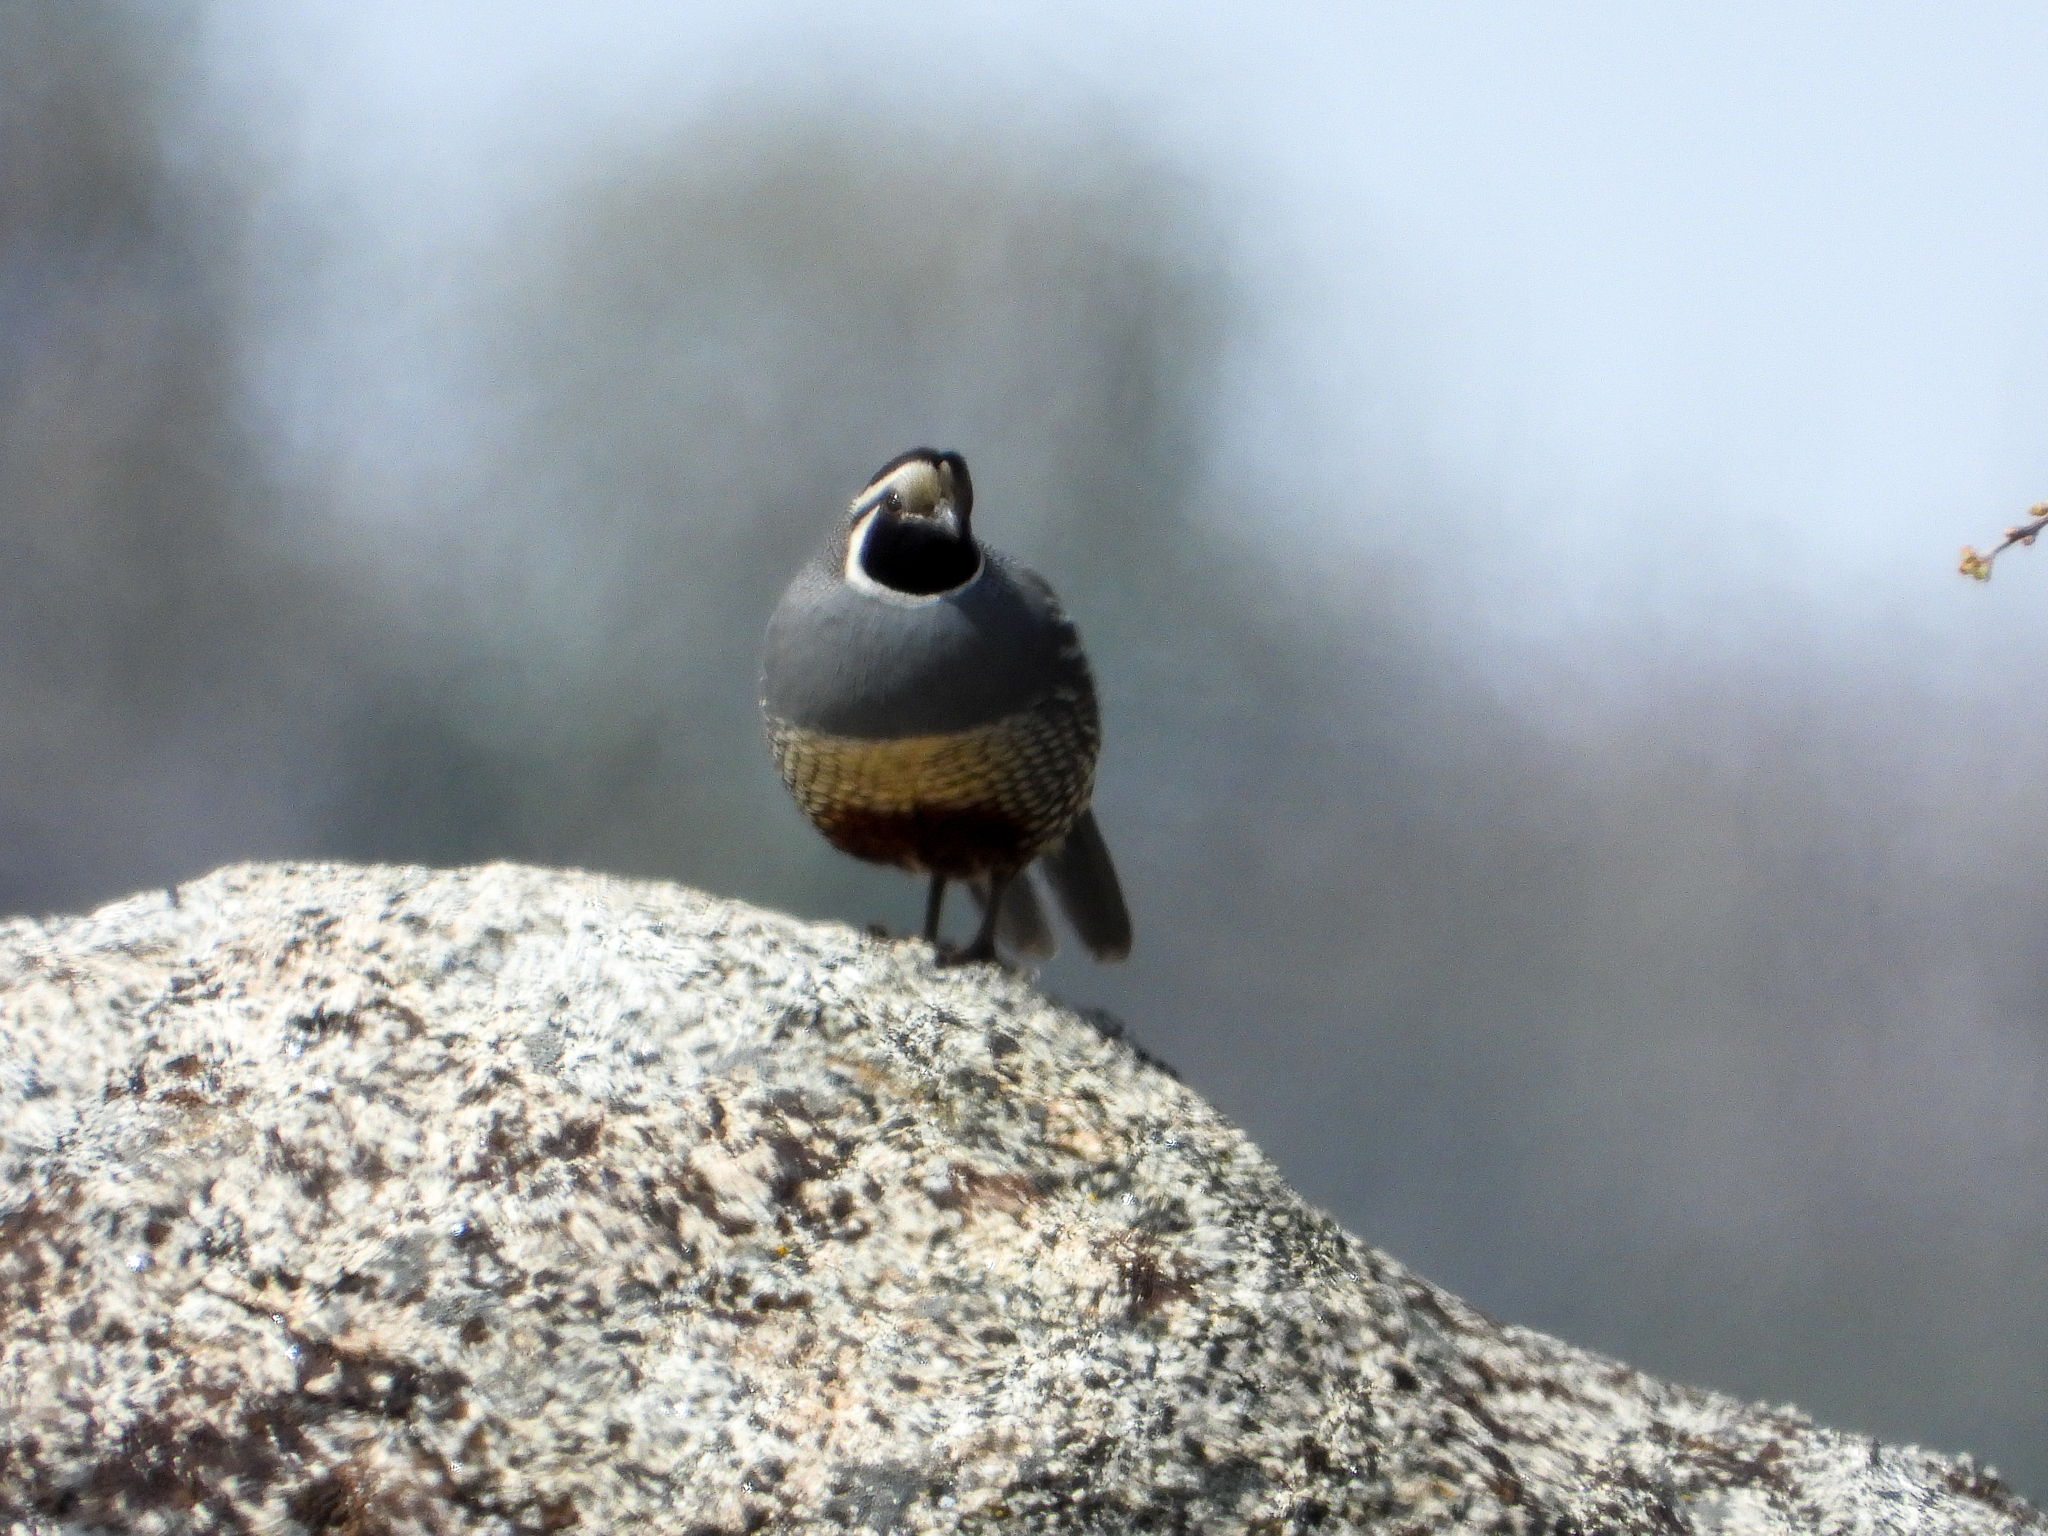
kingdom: Animalia
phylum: Chordata
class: Aves
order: Galliformes
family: Odontophoridae
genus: Callipepla
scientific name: Callipepla californica
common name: California quail
